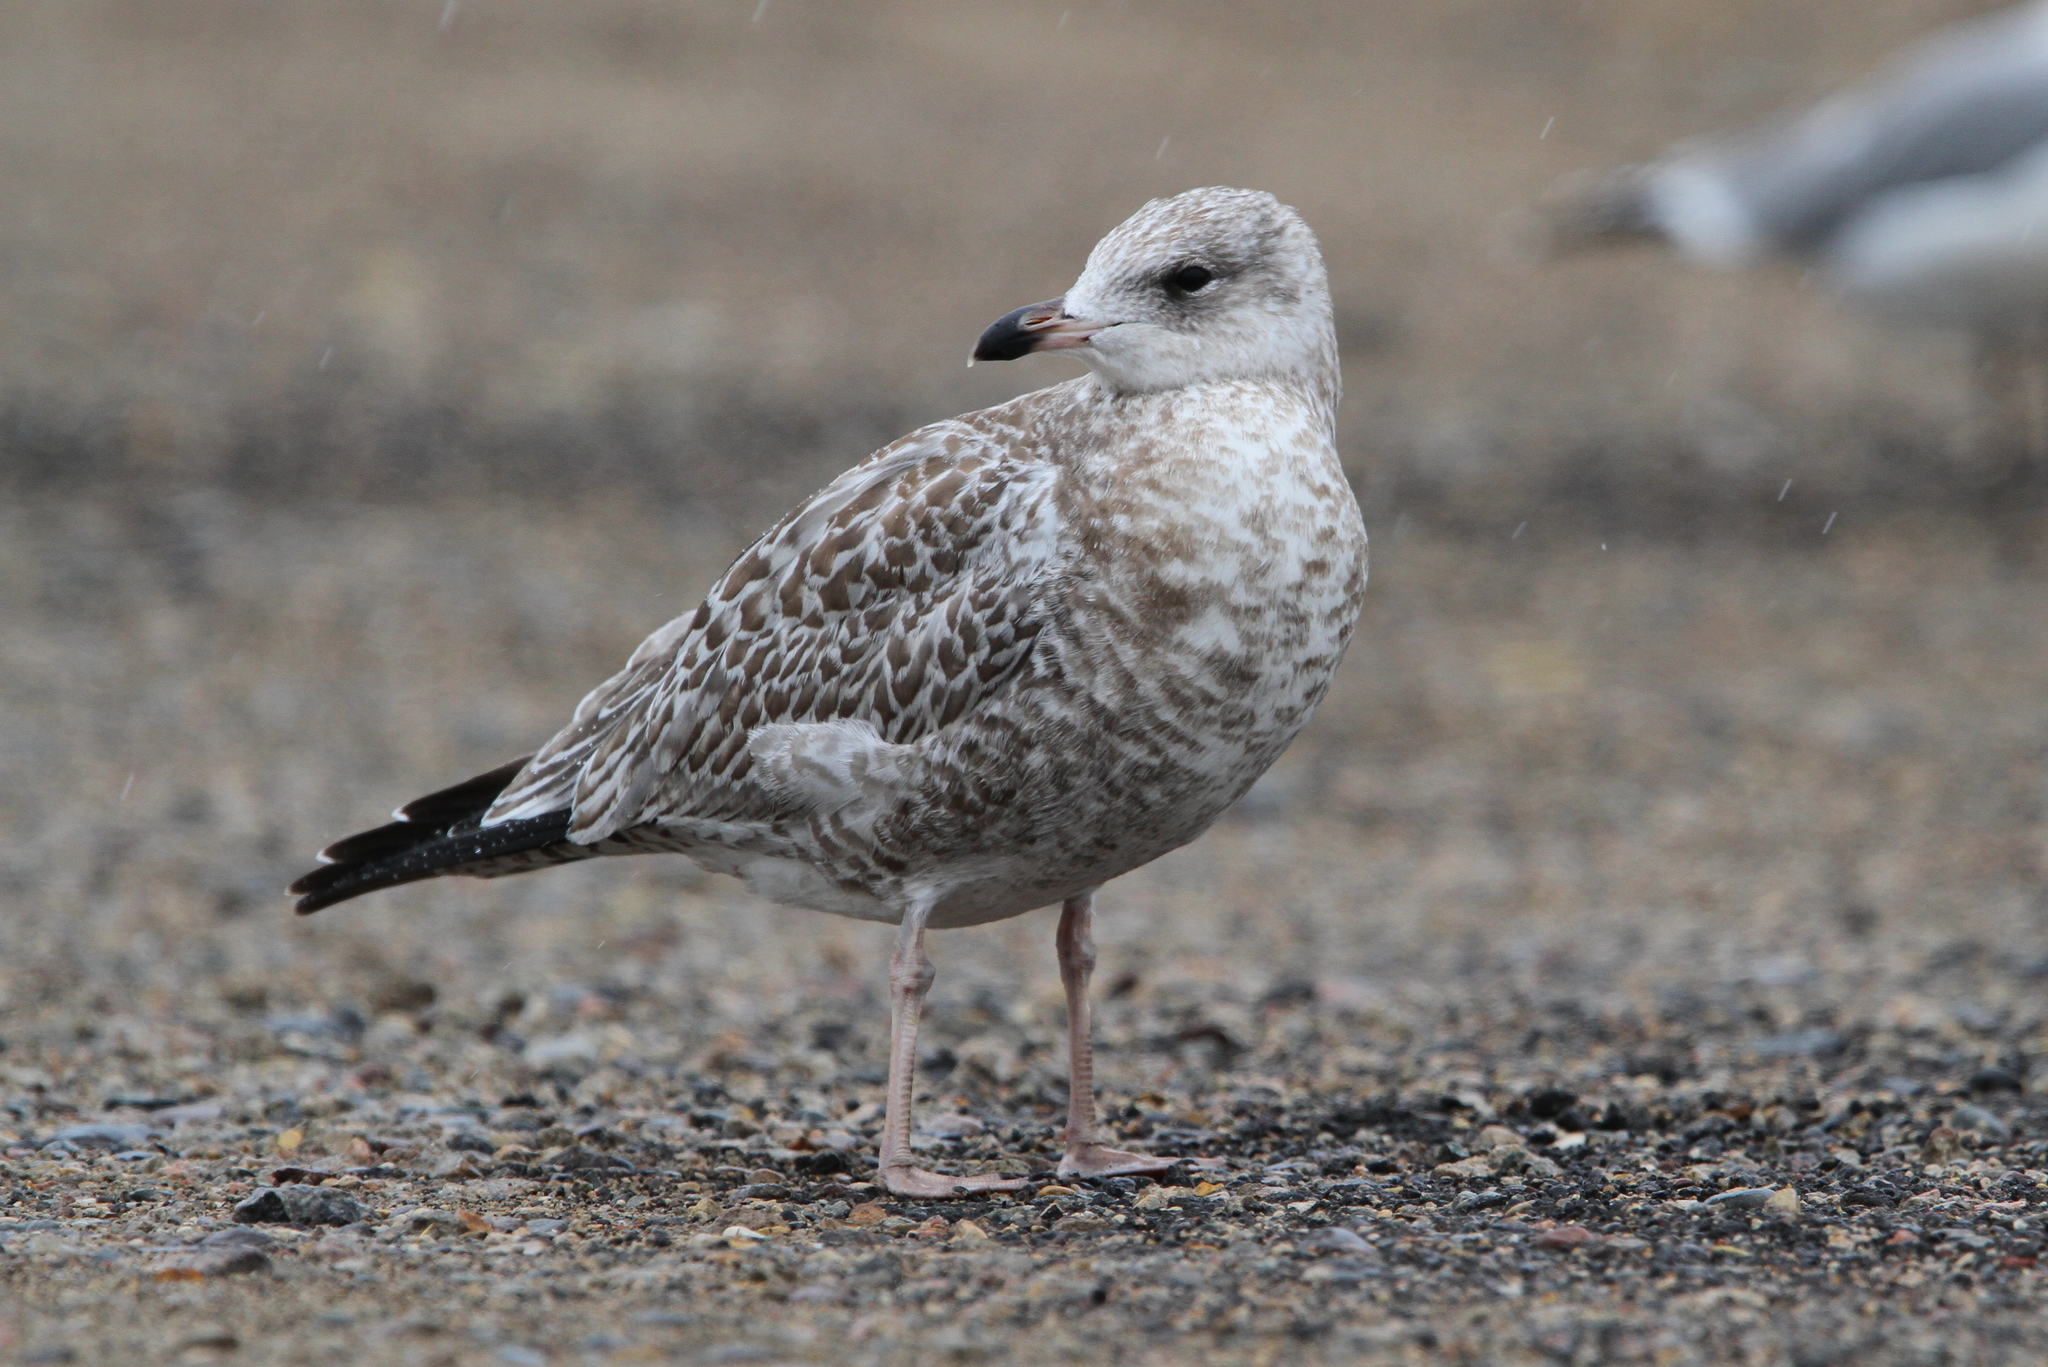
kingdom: Animalia
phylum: Chordata
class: Aves
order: Charadriiformes
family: Laridae
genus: Larus
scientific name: Larus delawarensis
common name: Ring-billed gull
